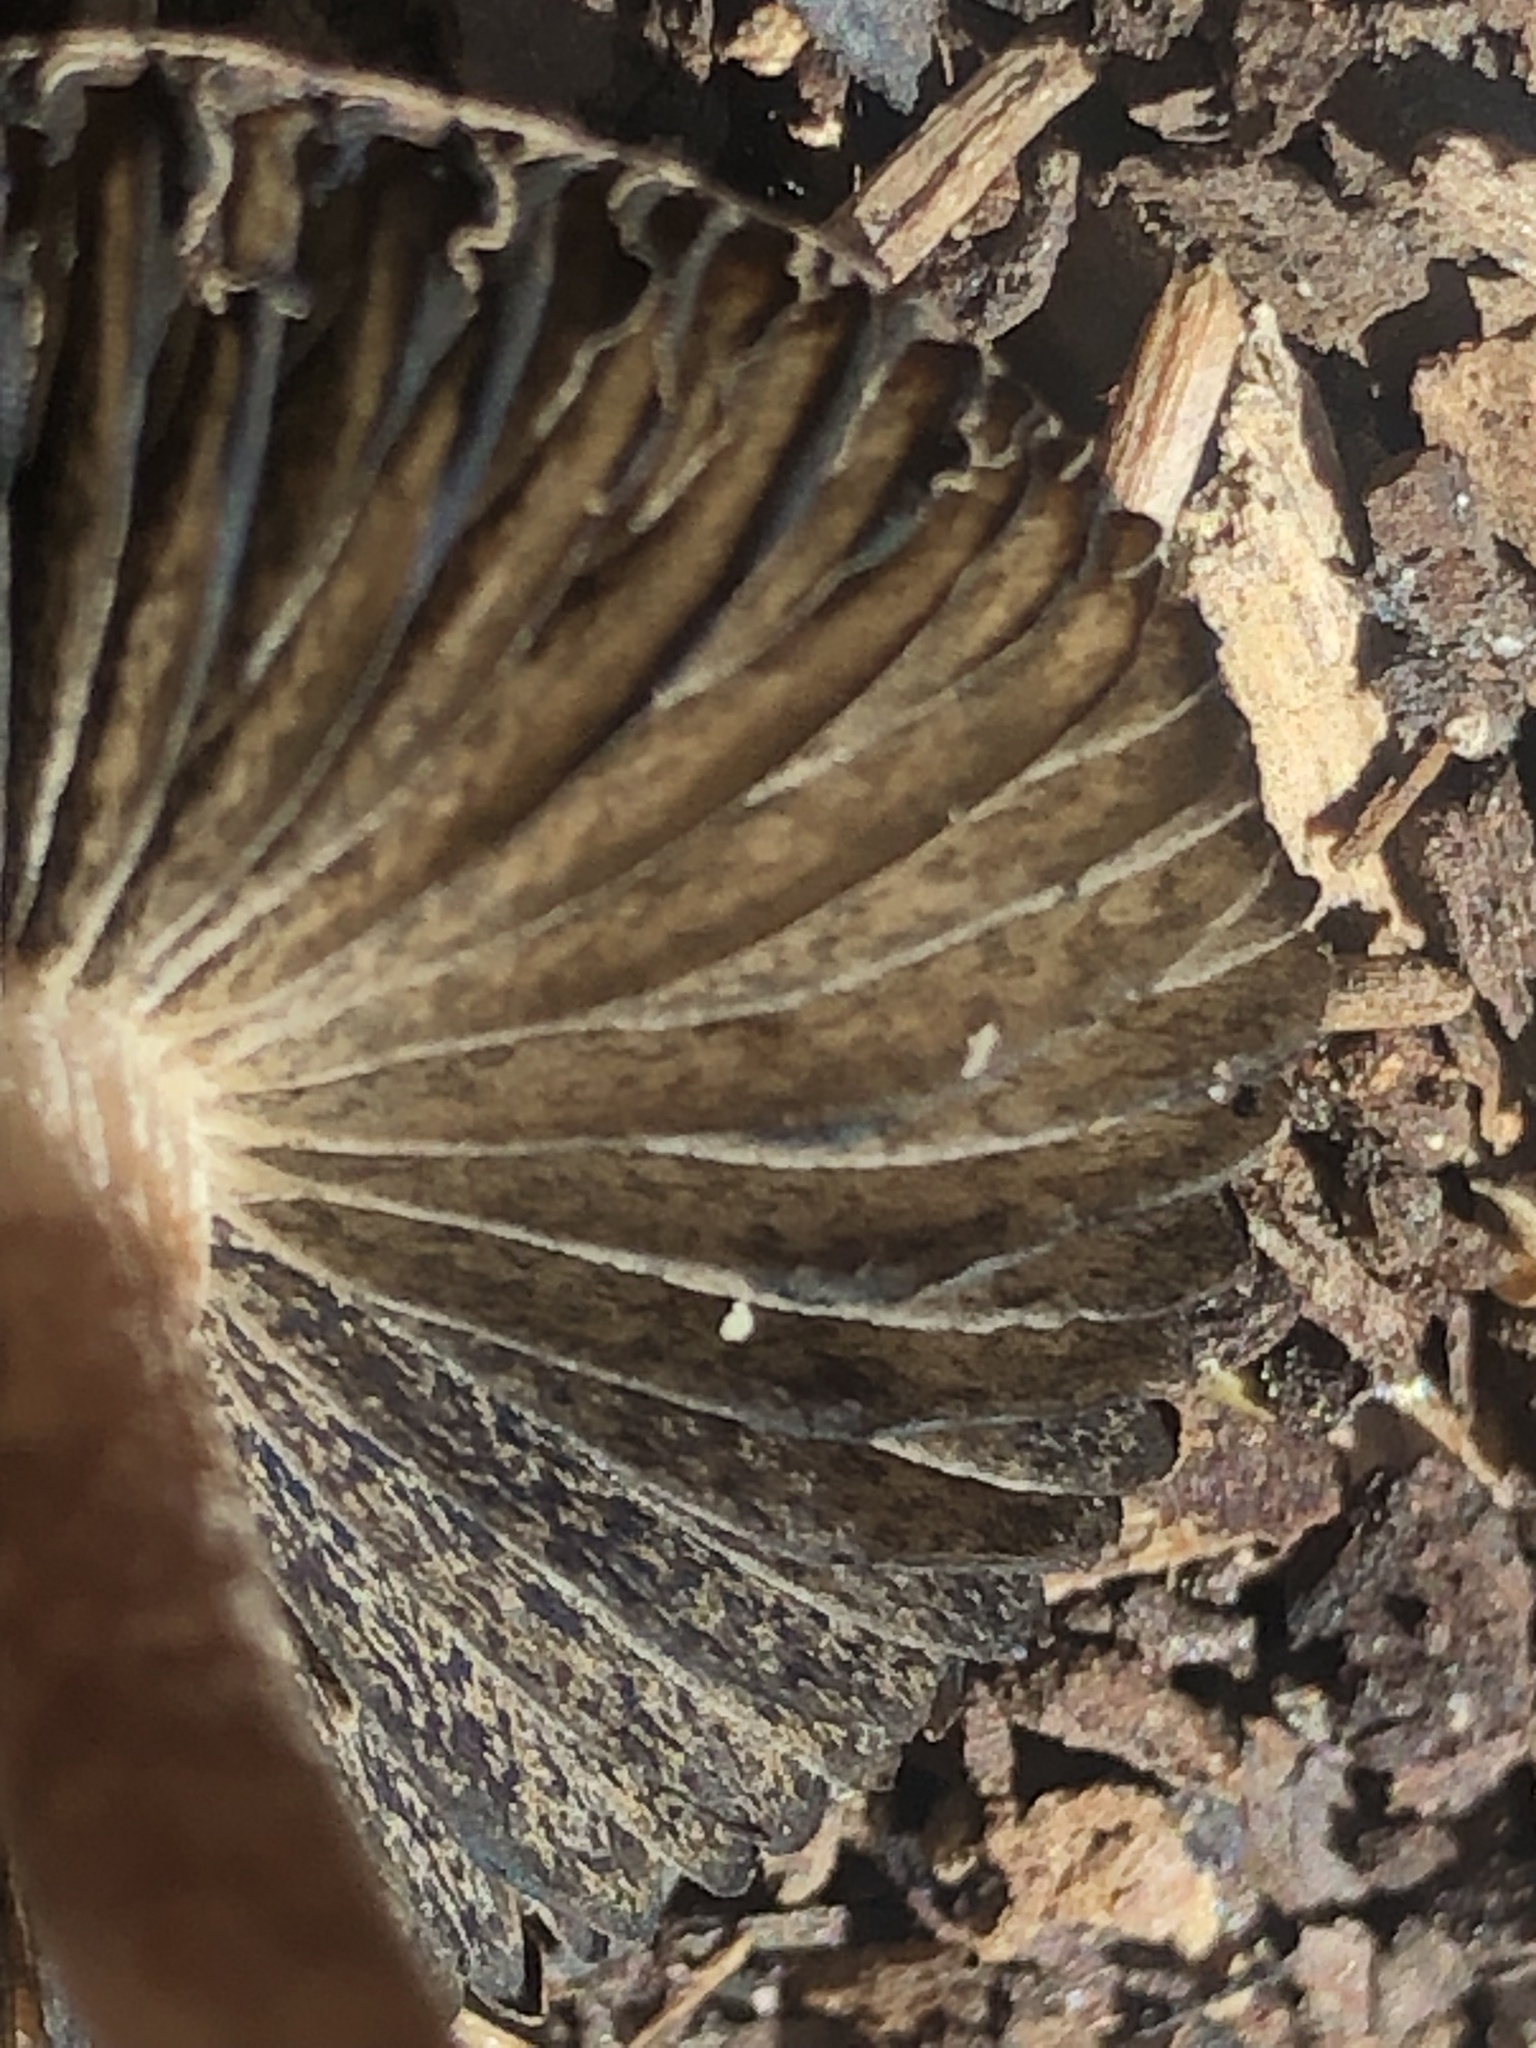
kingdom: Fungi
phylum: Basidiomycota
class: Agaricomycetes
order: Agaricales
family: Bolbitiaceae
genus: Panaeolus
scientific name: Panaeolus cinctulus
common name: Banded mottlegill
